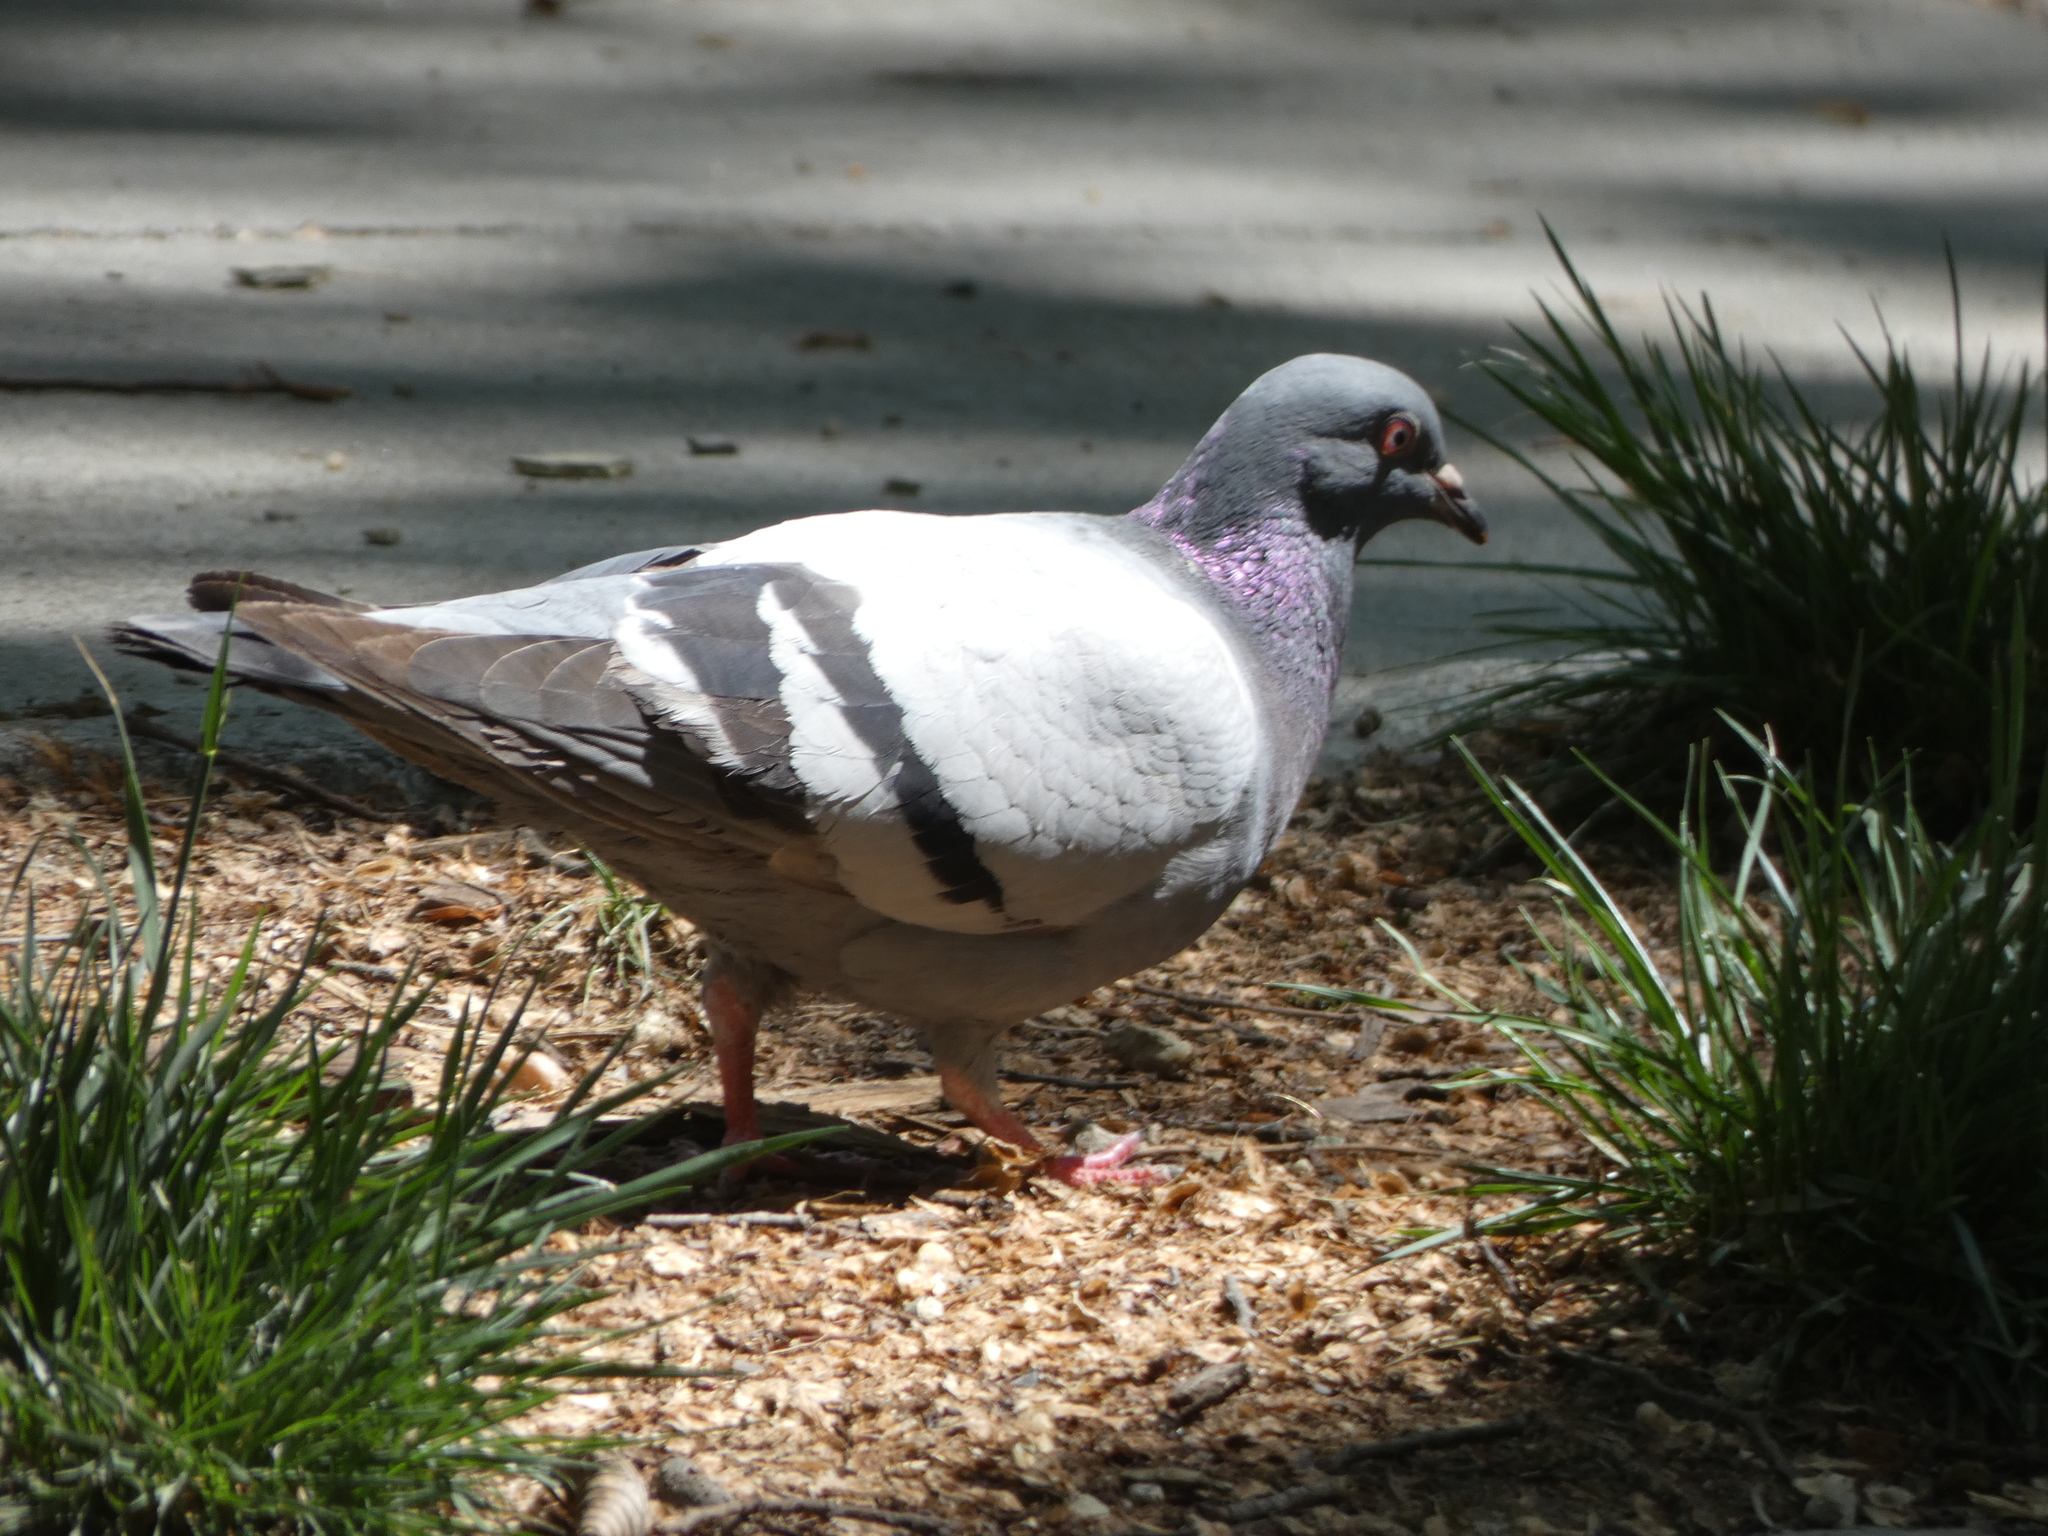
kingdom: Animalia
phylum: Chordata
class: Aves
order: Columbiformes
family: Columbidae
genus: Columba
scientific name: Columba livia
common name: Rock pigeon
